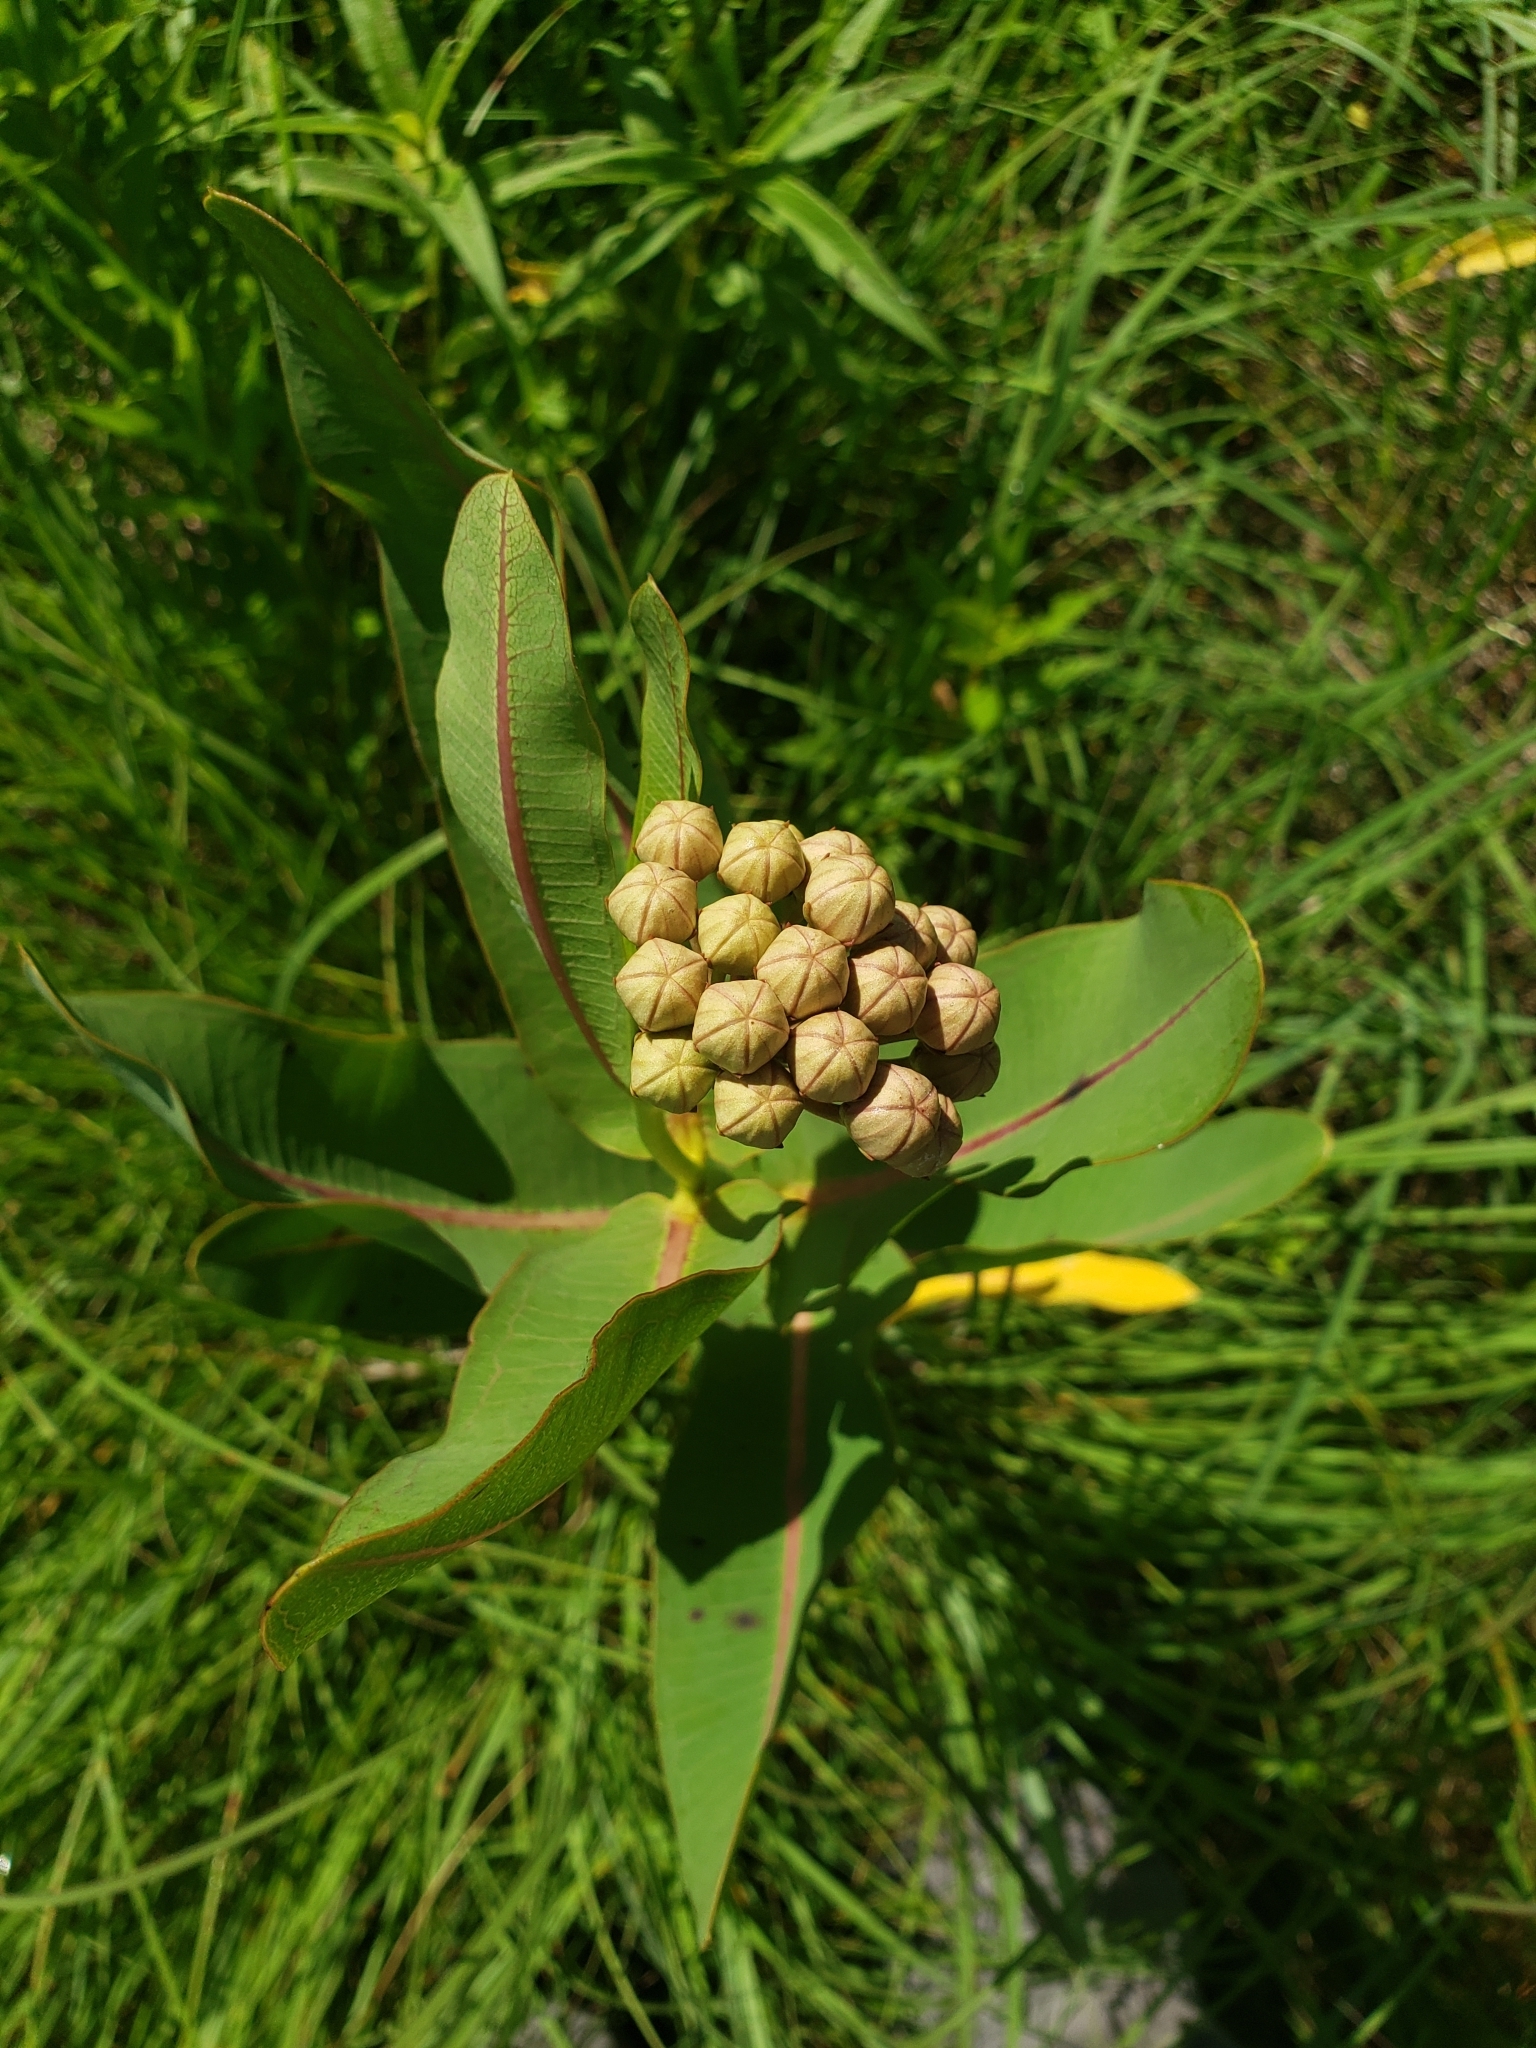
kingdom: Plantae
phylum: Tracheophyta
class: Magnoliopsida
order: Gentianales
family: Apocynaceae
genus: Asclepias
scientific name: Asclepias sullivantii
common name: Prairie milkweed
